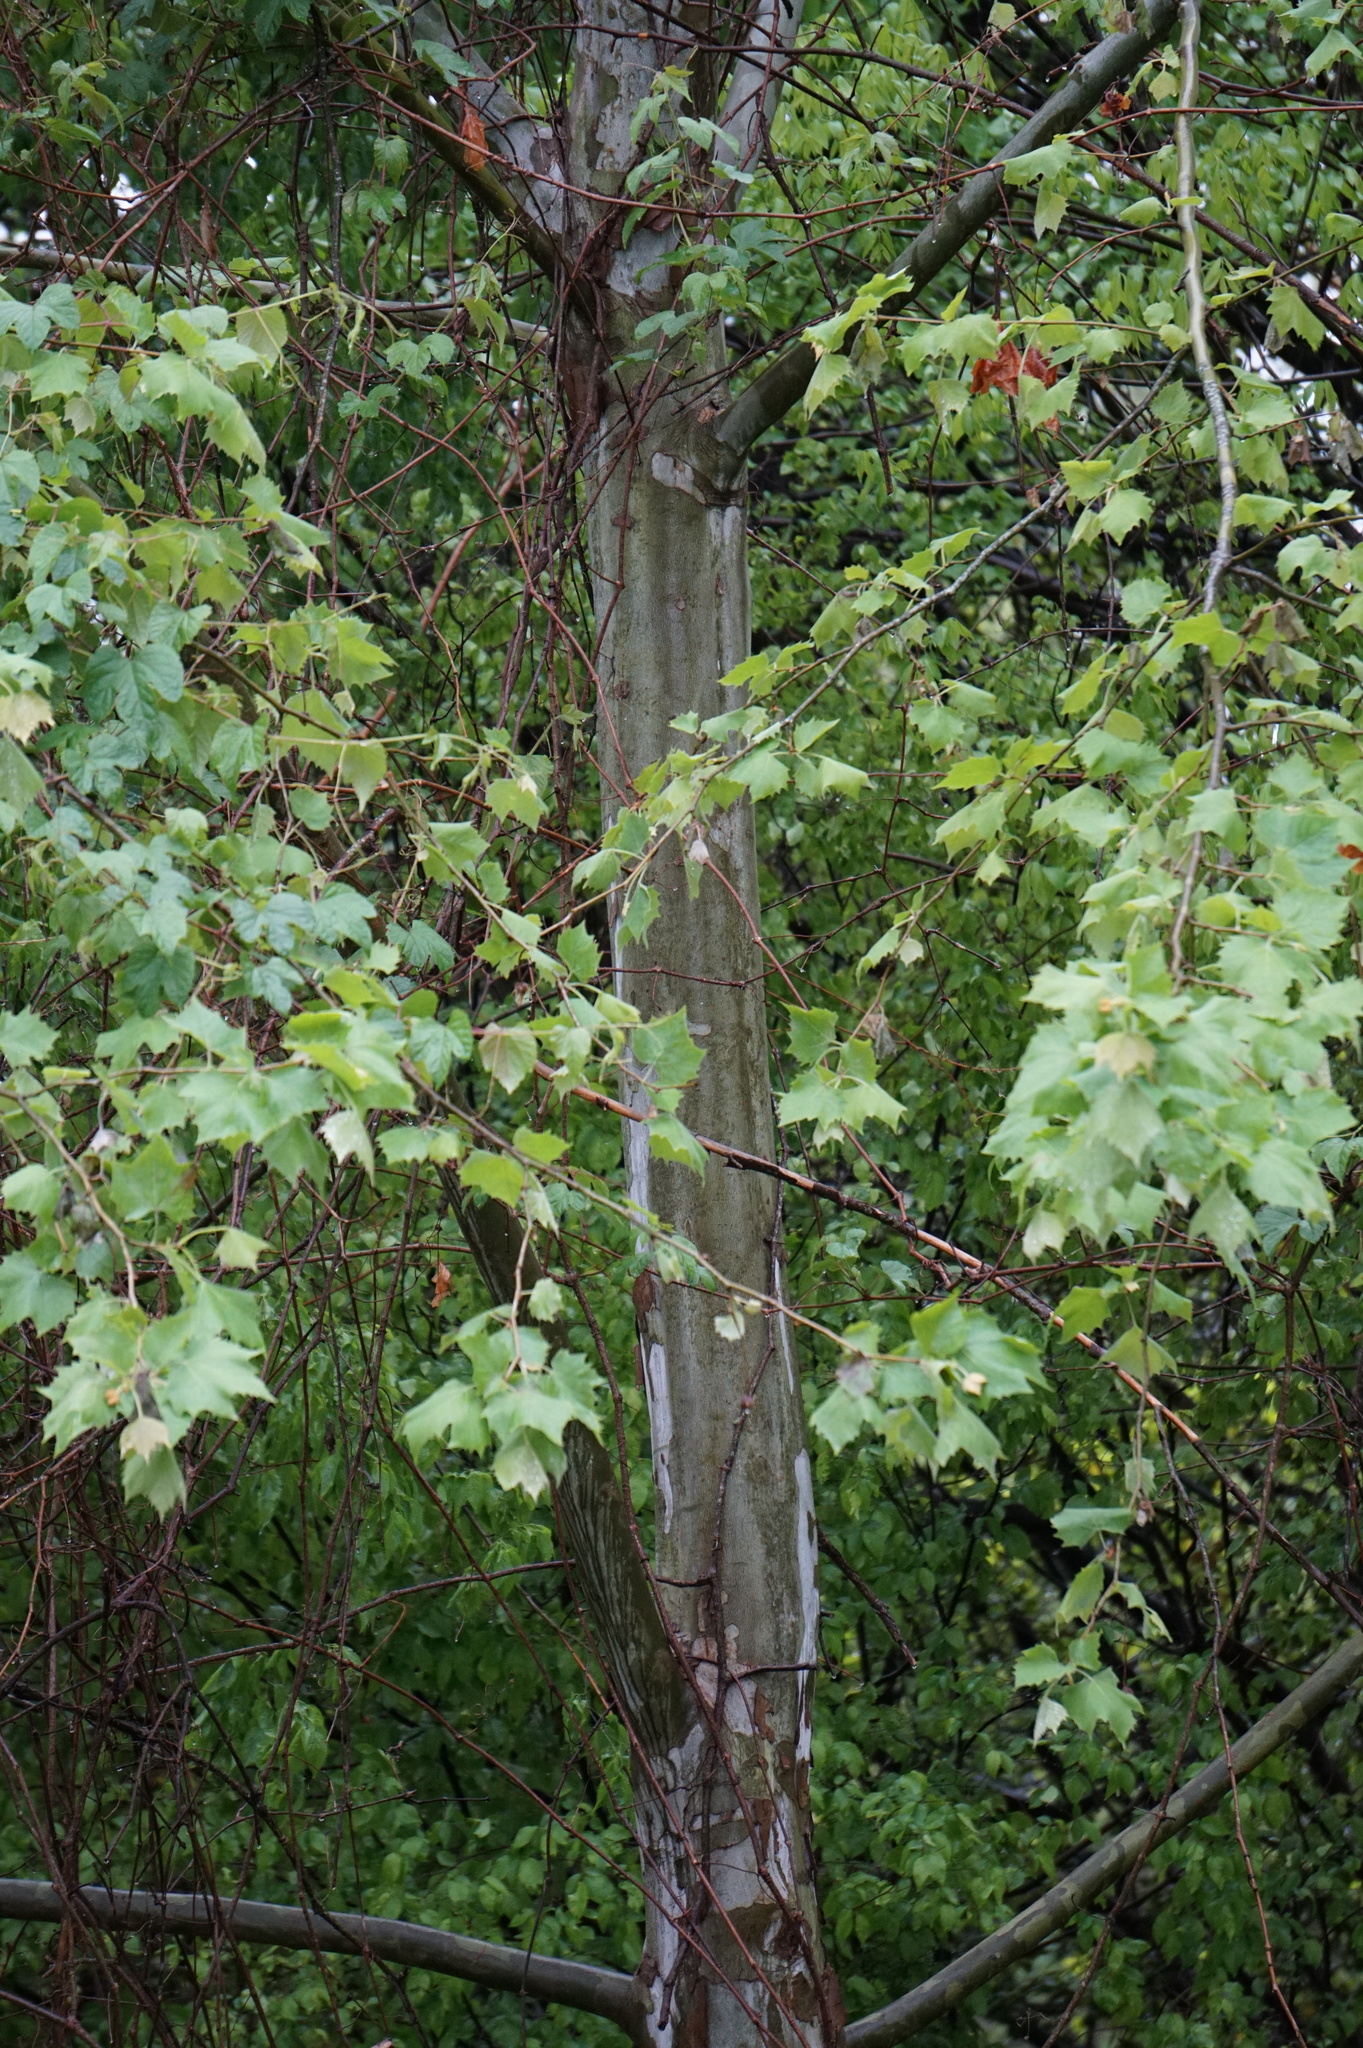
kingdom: Plantae
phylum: Tracheophyta
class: Magnoliopsida
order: Proteales
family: Platanaceae
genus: Platanus
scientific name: Platanus occidentalis
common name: American sycamore
